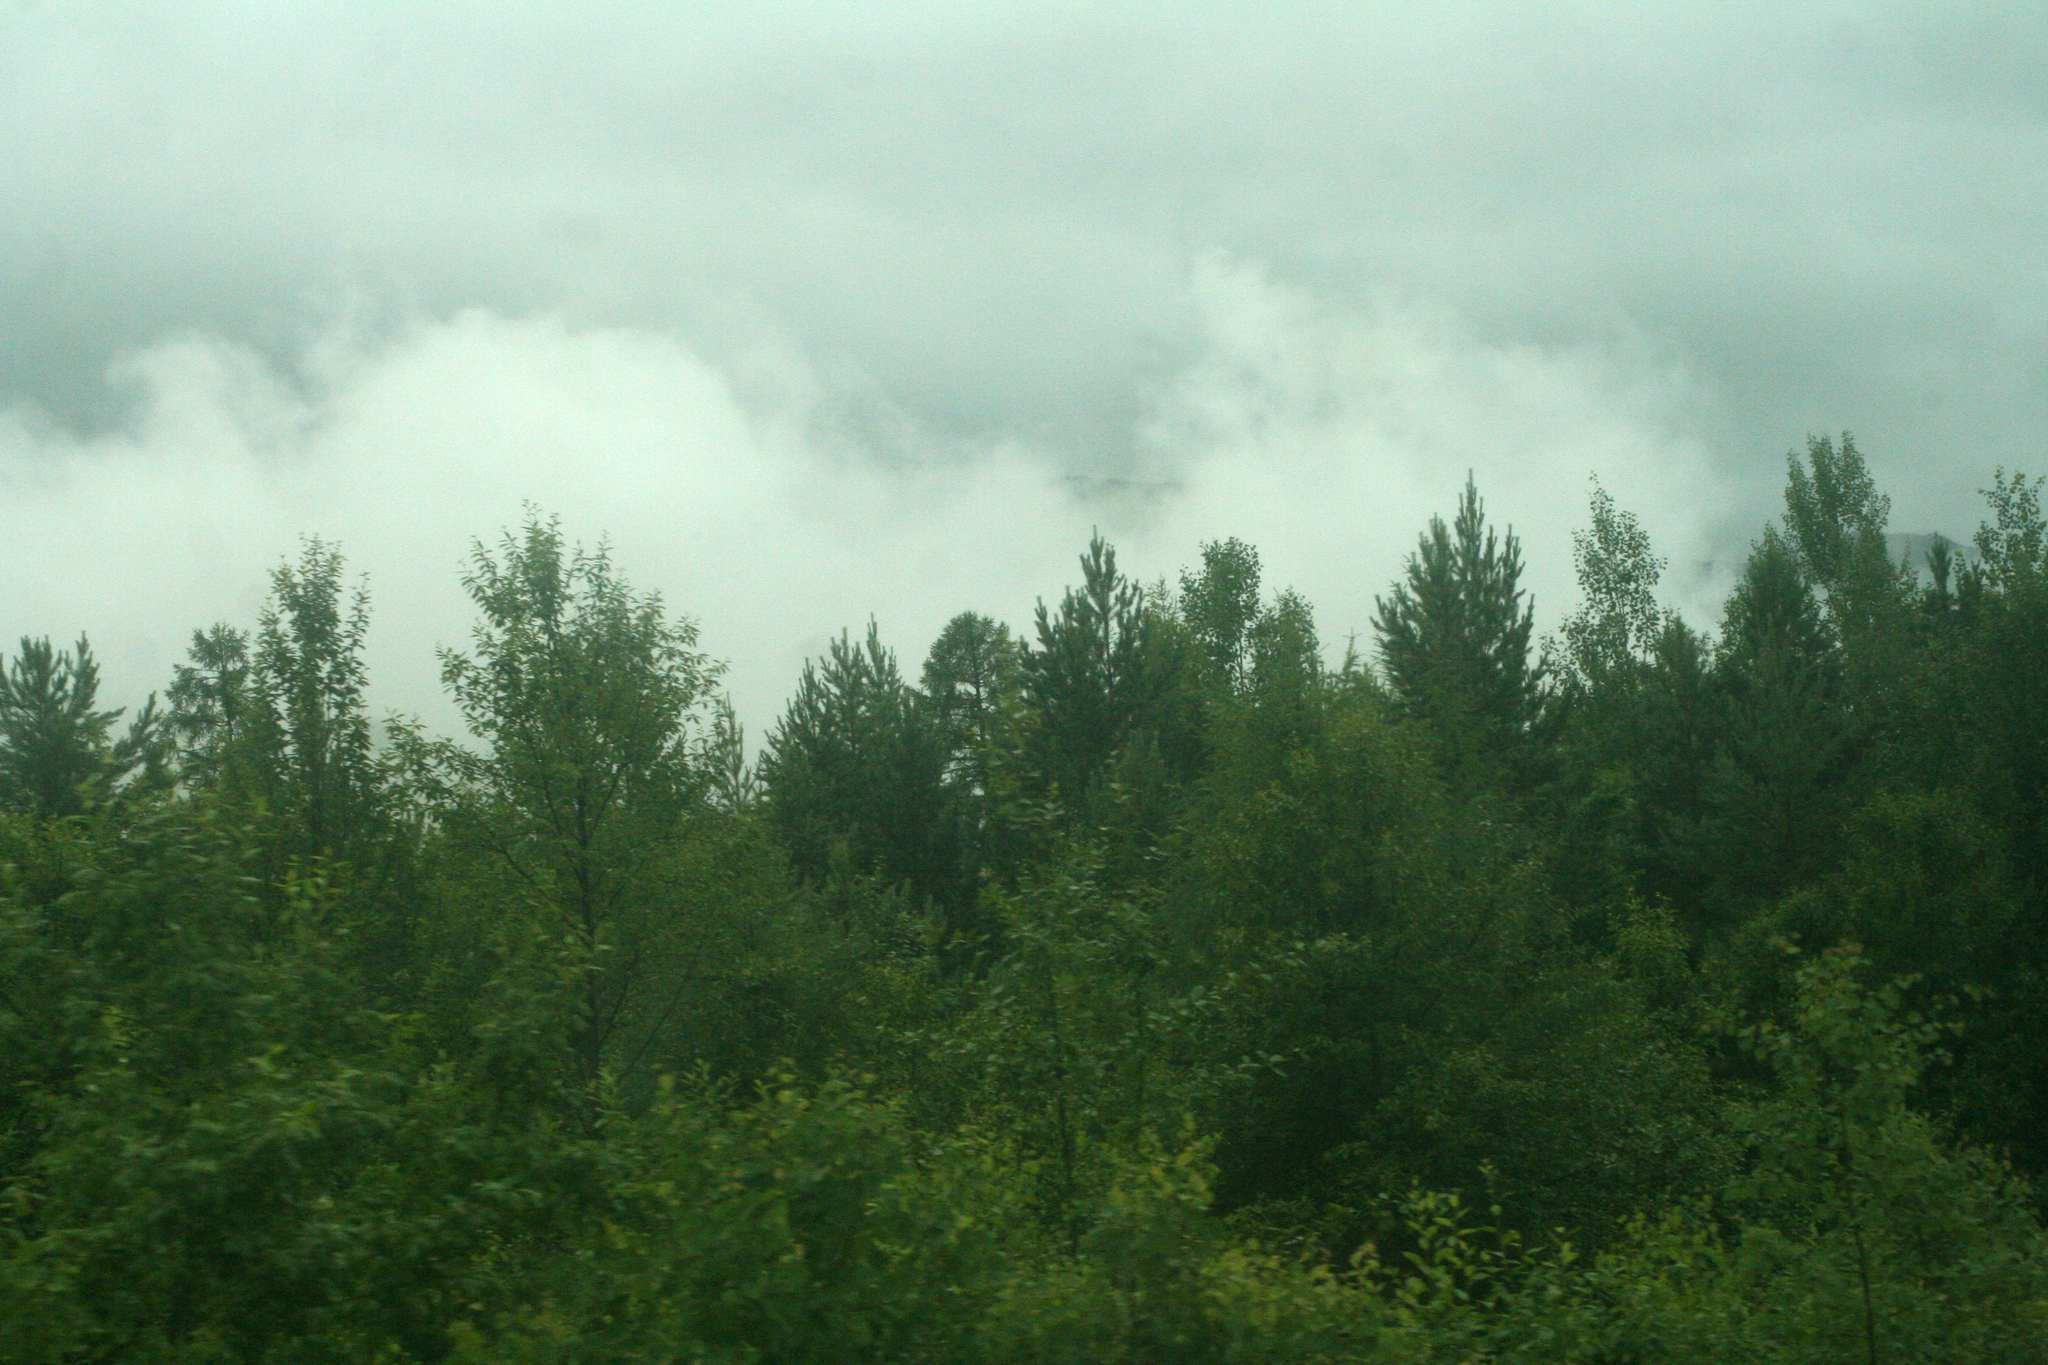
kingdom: Plantae
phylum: Tracheophyta
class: Pinopsida
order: Pinales
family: Pinaceae
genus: Larix
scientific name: Larix gmelinii
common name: Dahurian larch
